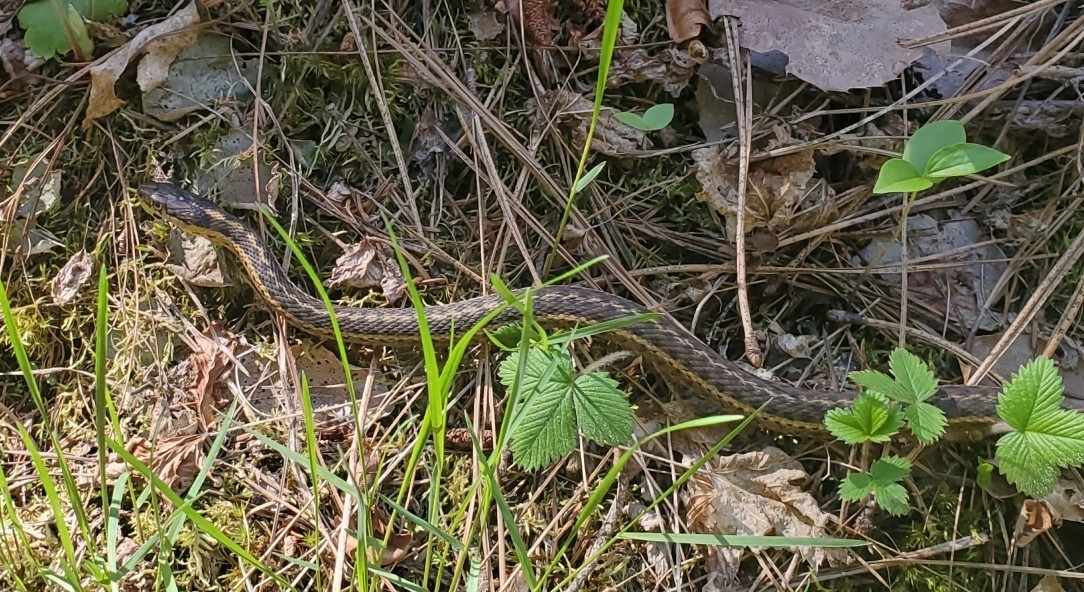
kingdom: Animalia
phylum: Chordata
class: Squamata
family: Colubridae
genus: Thamnophis
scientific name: Thamnophis elegans
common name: Western terrestrial garter snake
